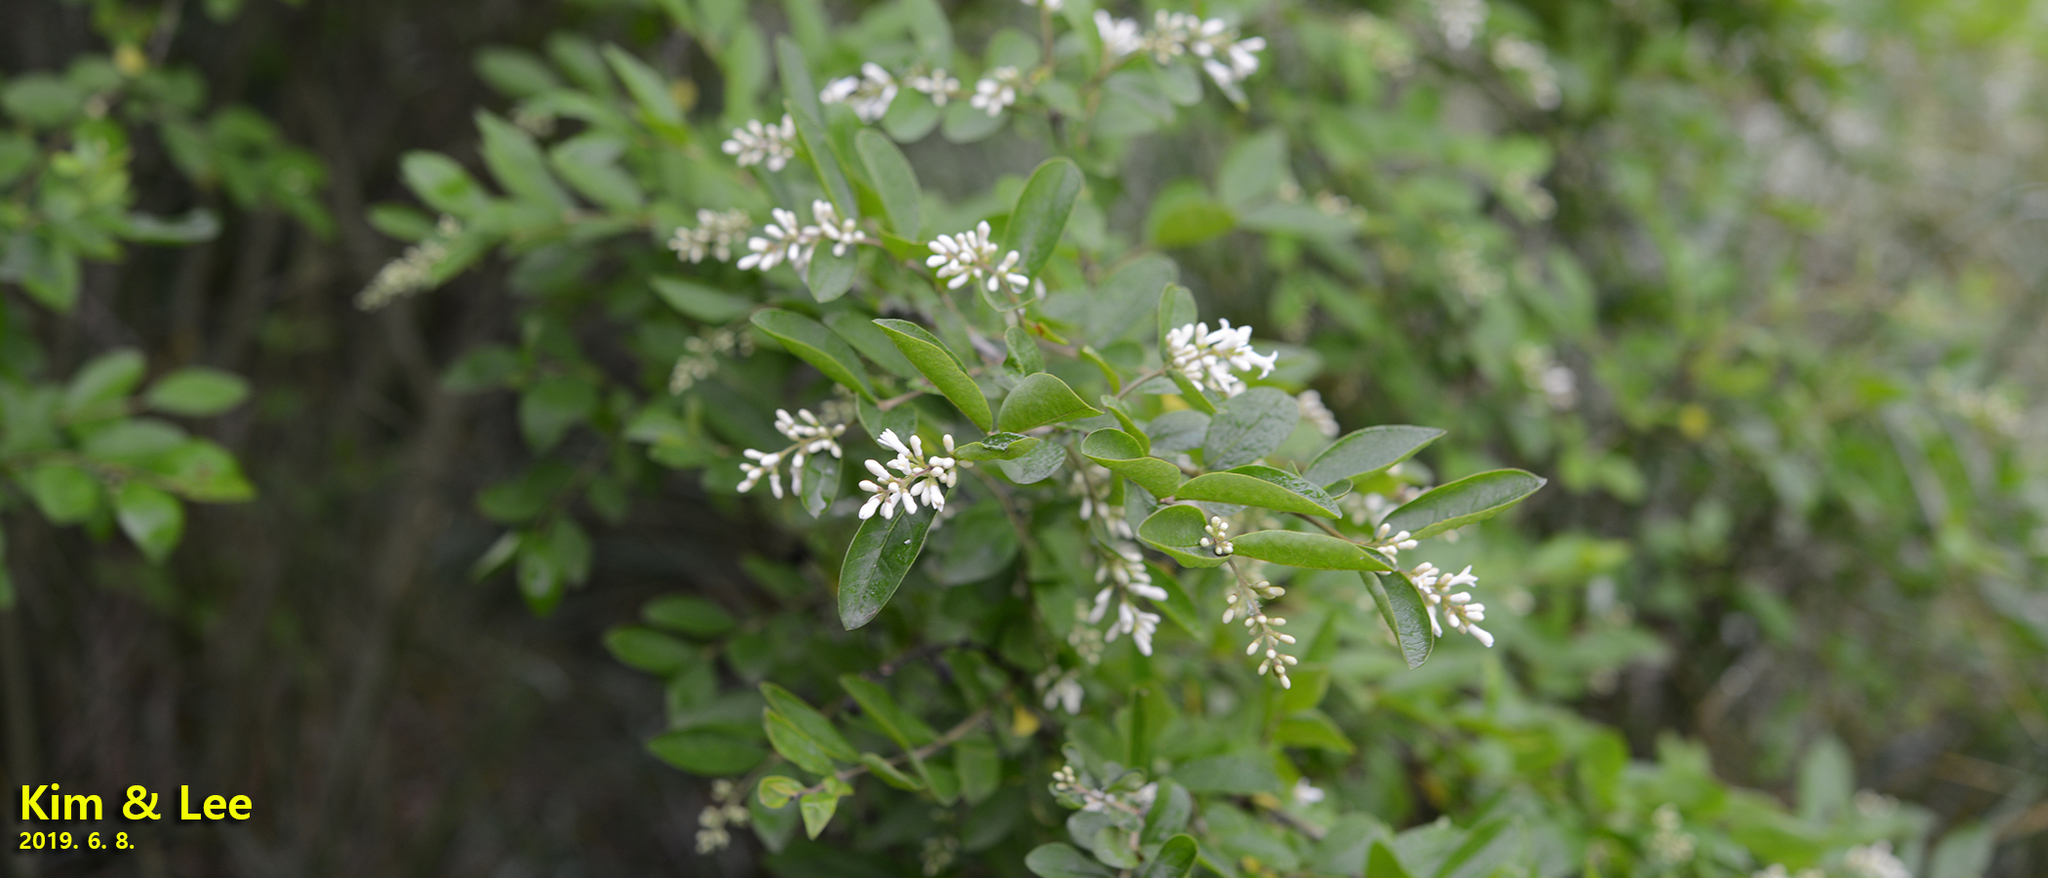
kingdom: Plantae
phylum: Tracheophyta
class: Magnoliopsida
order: Lamiales
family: Oleaceae
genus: Ligustrum
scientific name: Ligustrum obtusifolium
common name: Border privet
